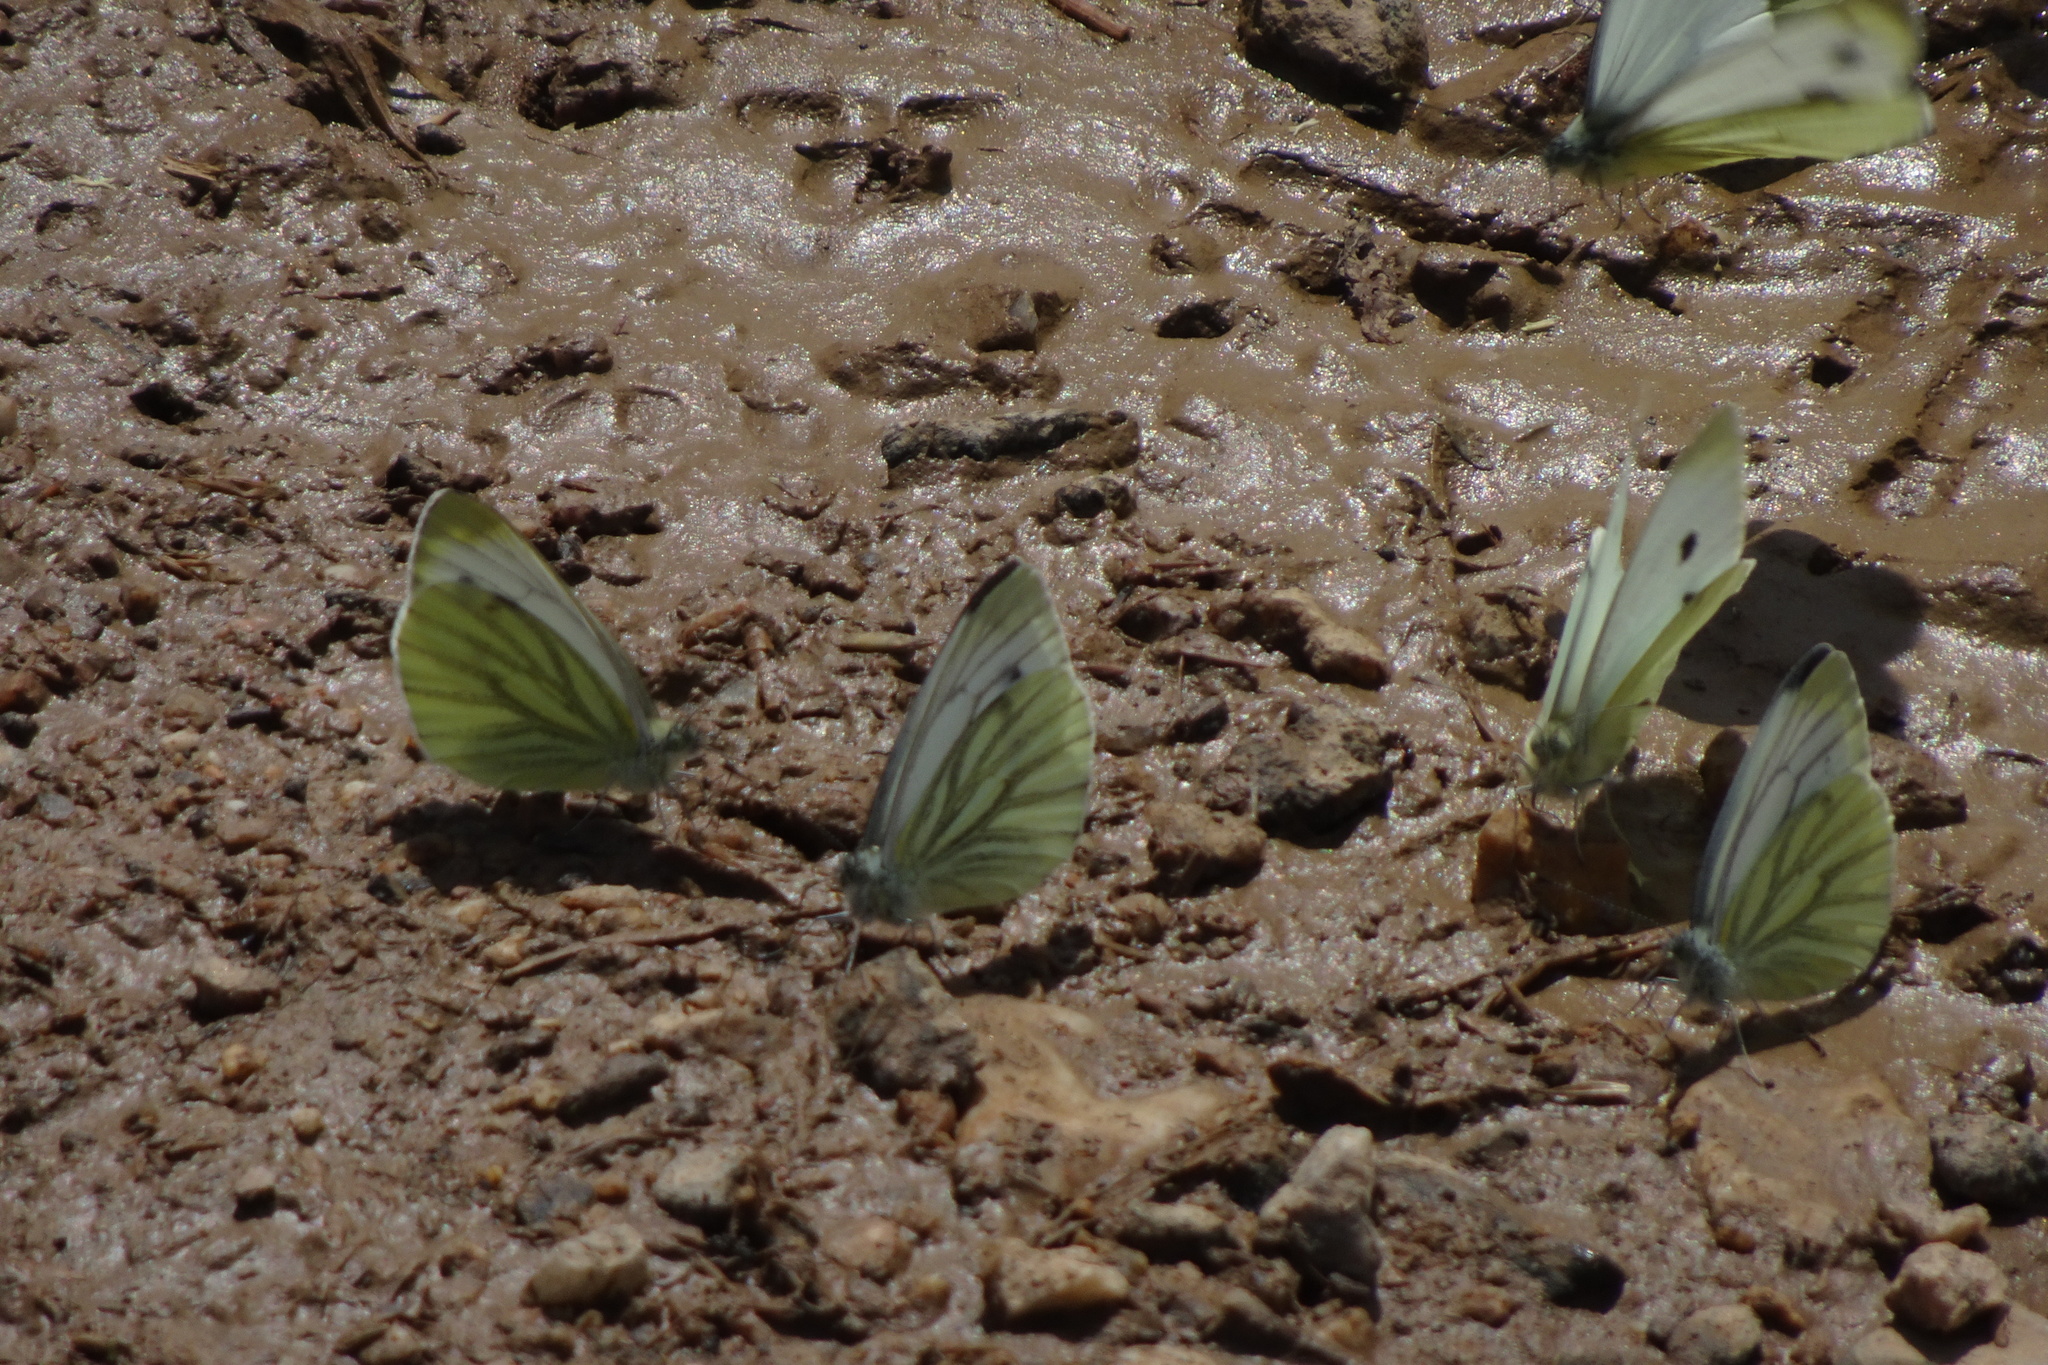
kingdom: Animalia
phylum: Arthropoda
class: Insecta
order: Lepidoptera
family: Pieridae
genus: Pieris
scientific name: Pieris napi
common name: Green-veined white
